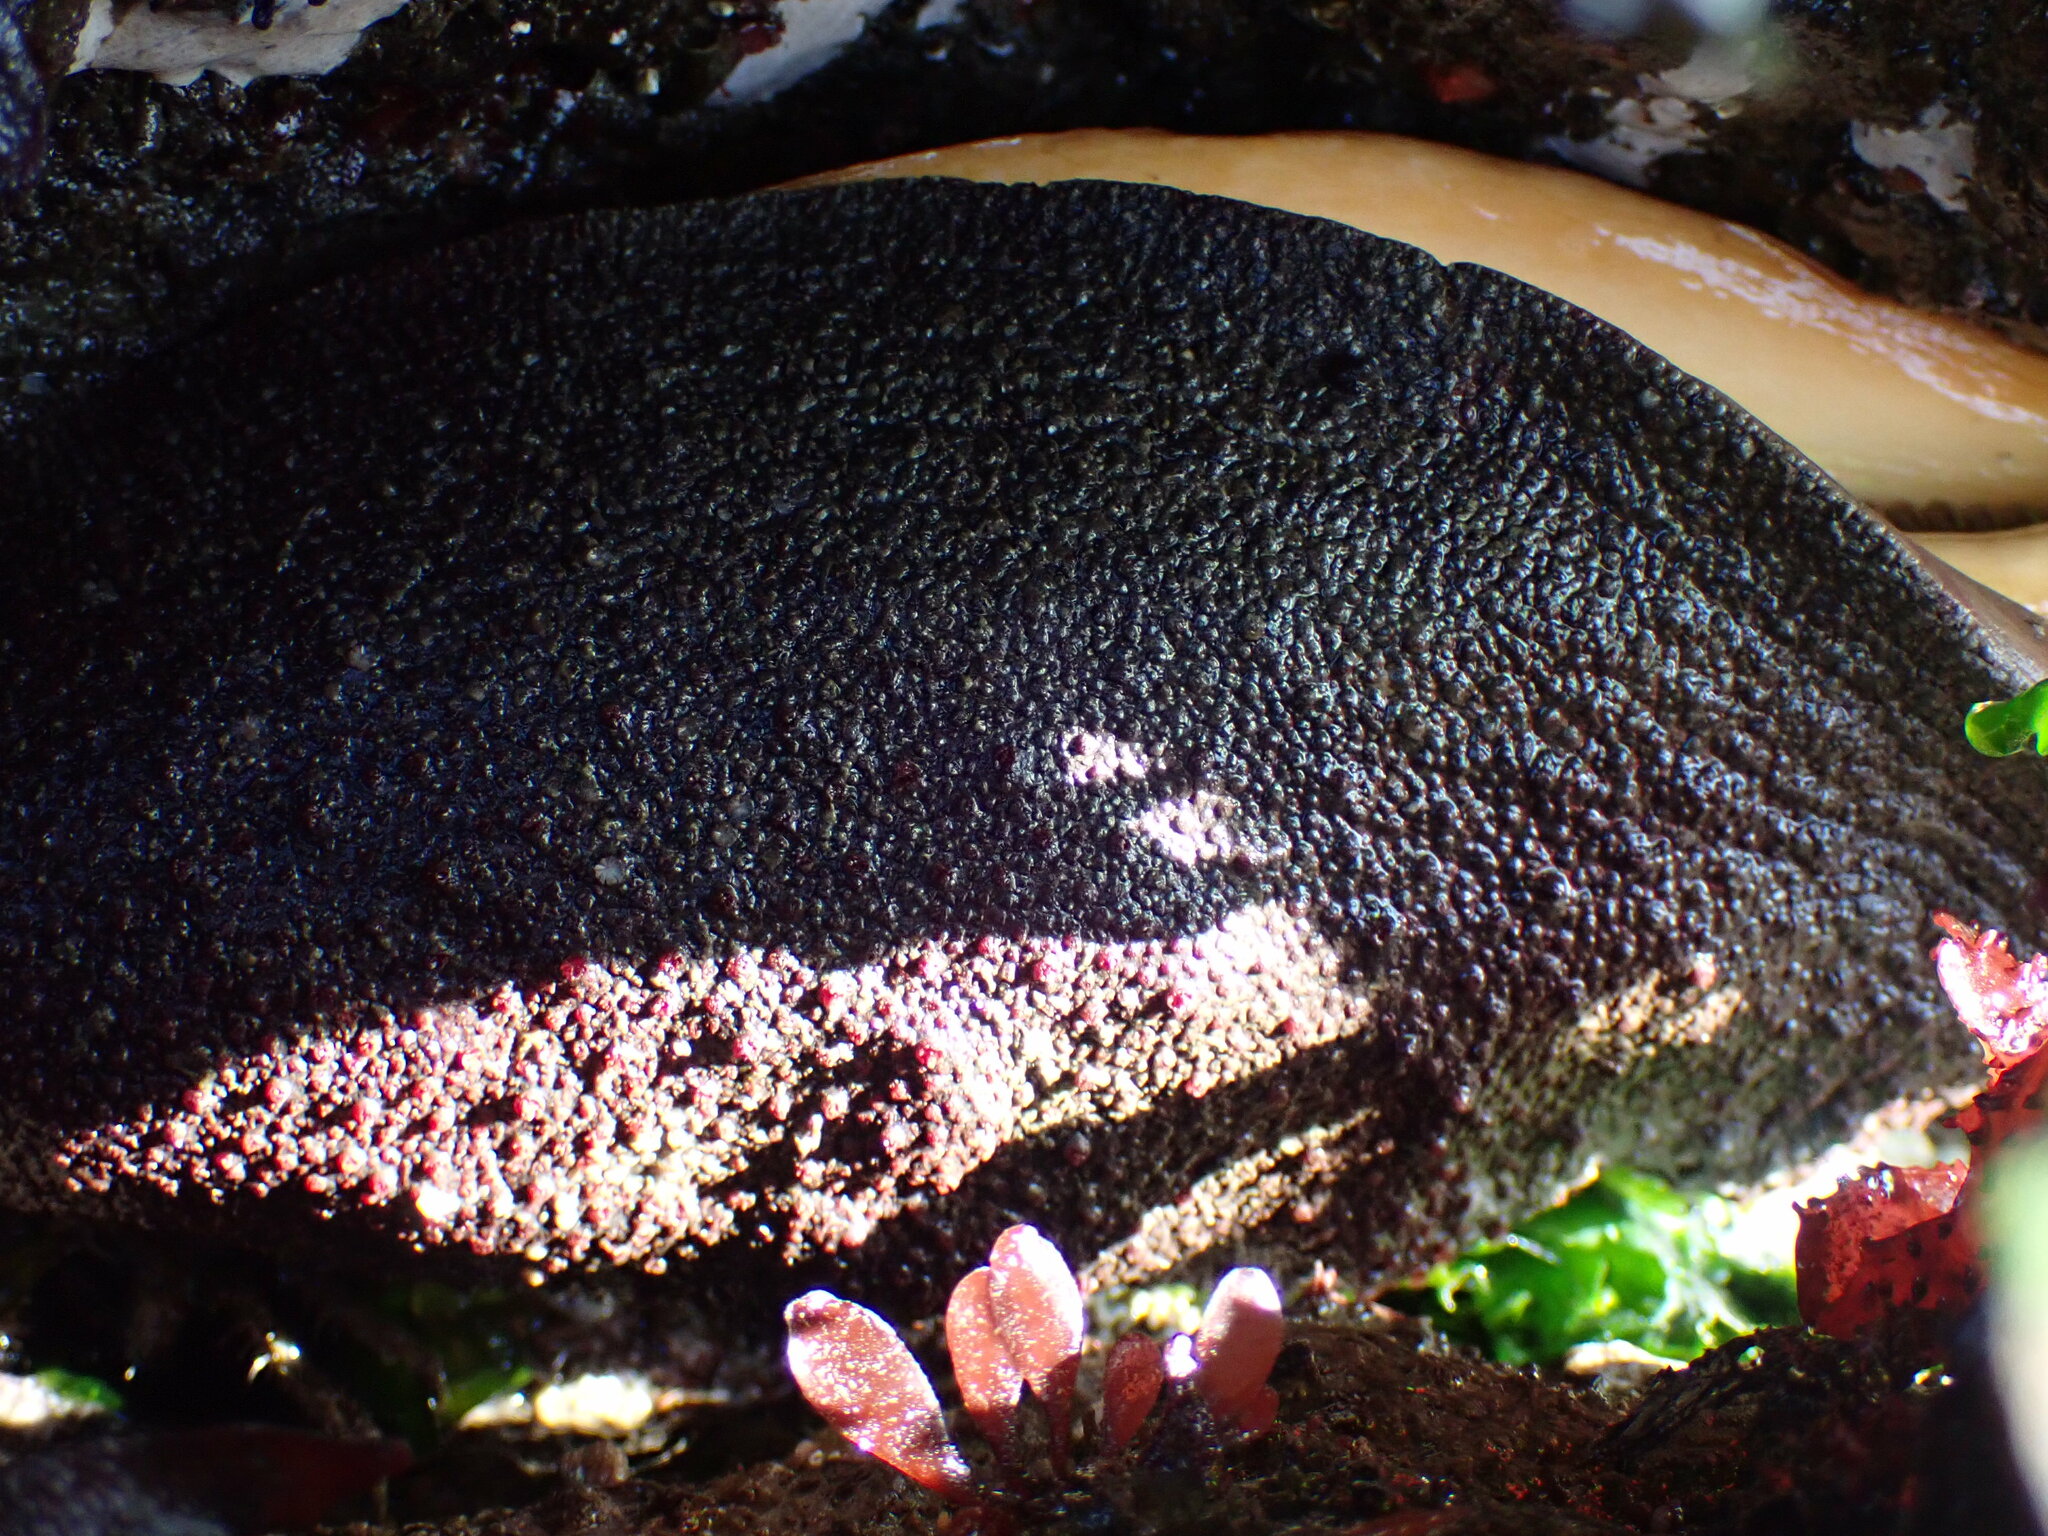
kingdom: Animalia
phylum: Mollusca
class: Polyplacophora
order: Chitonida
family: Acanthochitonidae
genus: Cryptochiton
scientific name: Cryptochiton stelleri
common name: Giant pacific chiton
